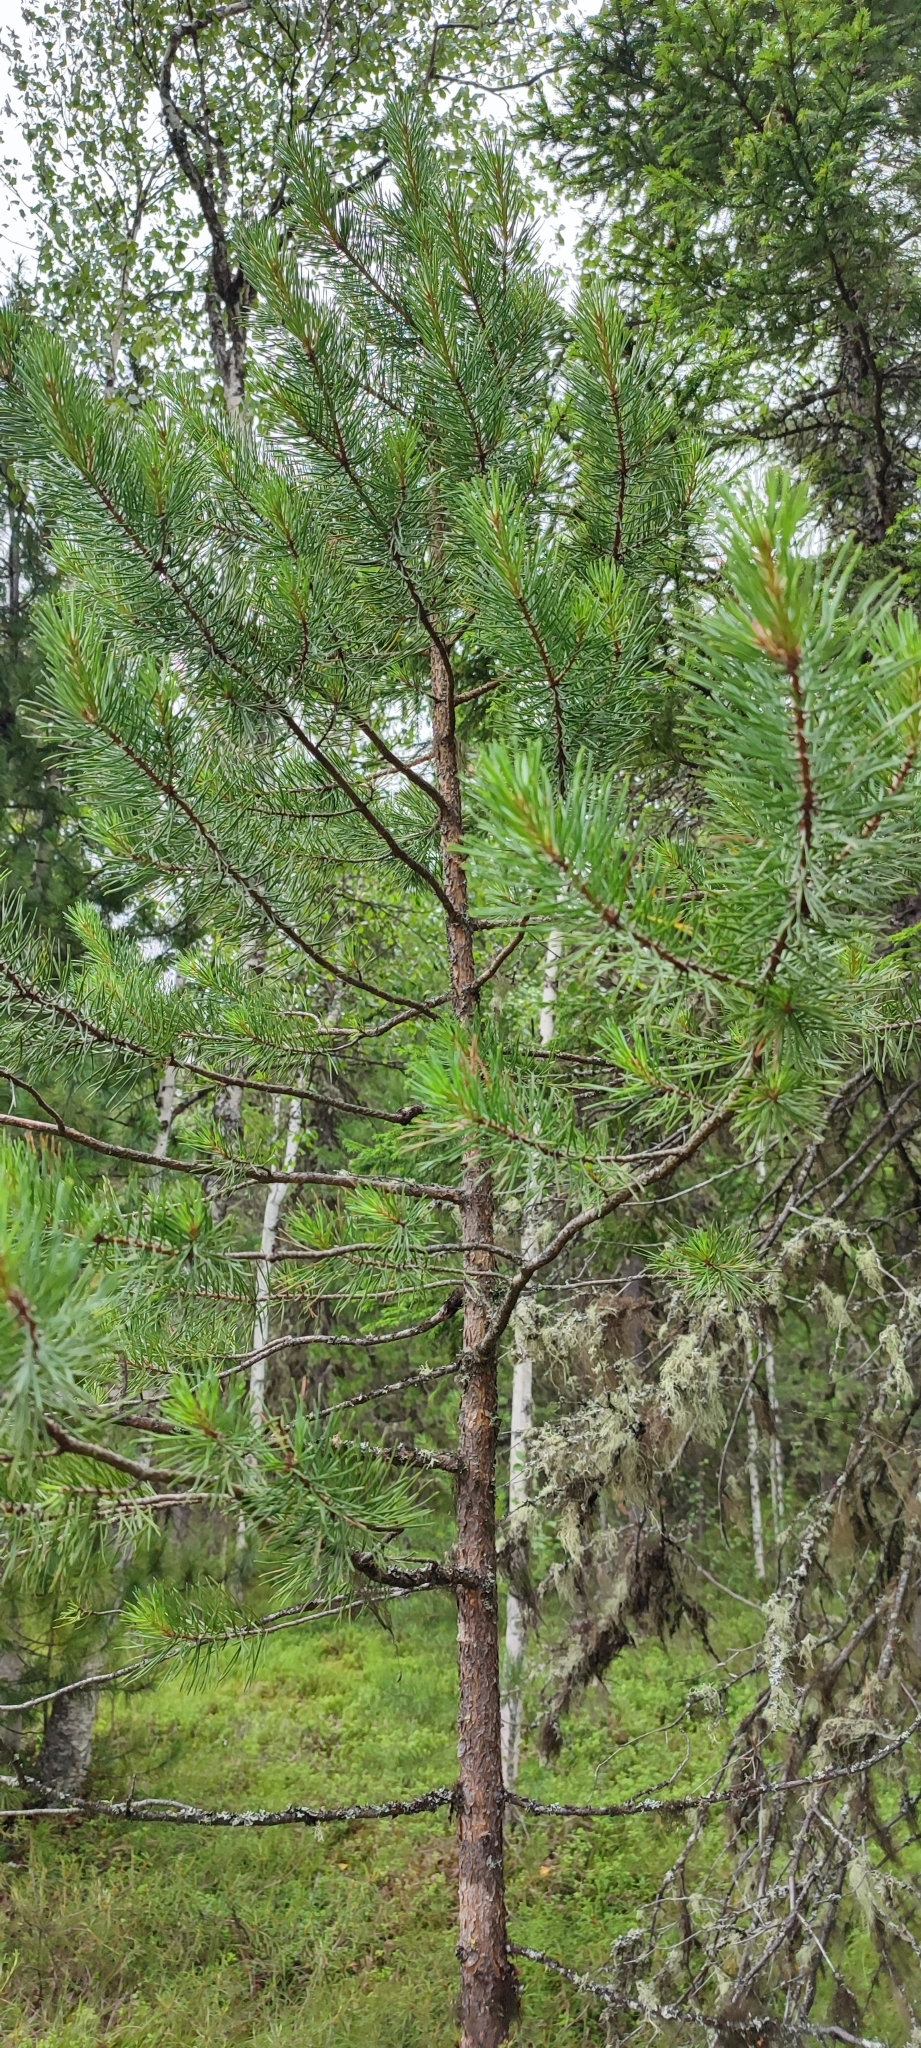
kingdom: Plantae
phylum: Tracheophyta
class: Pinopsida
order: Pinales
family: Pinaceae
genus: Pinus
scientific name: Pinus sylvestris
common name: Scots pine
